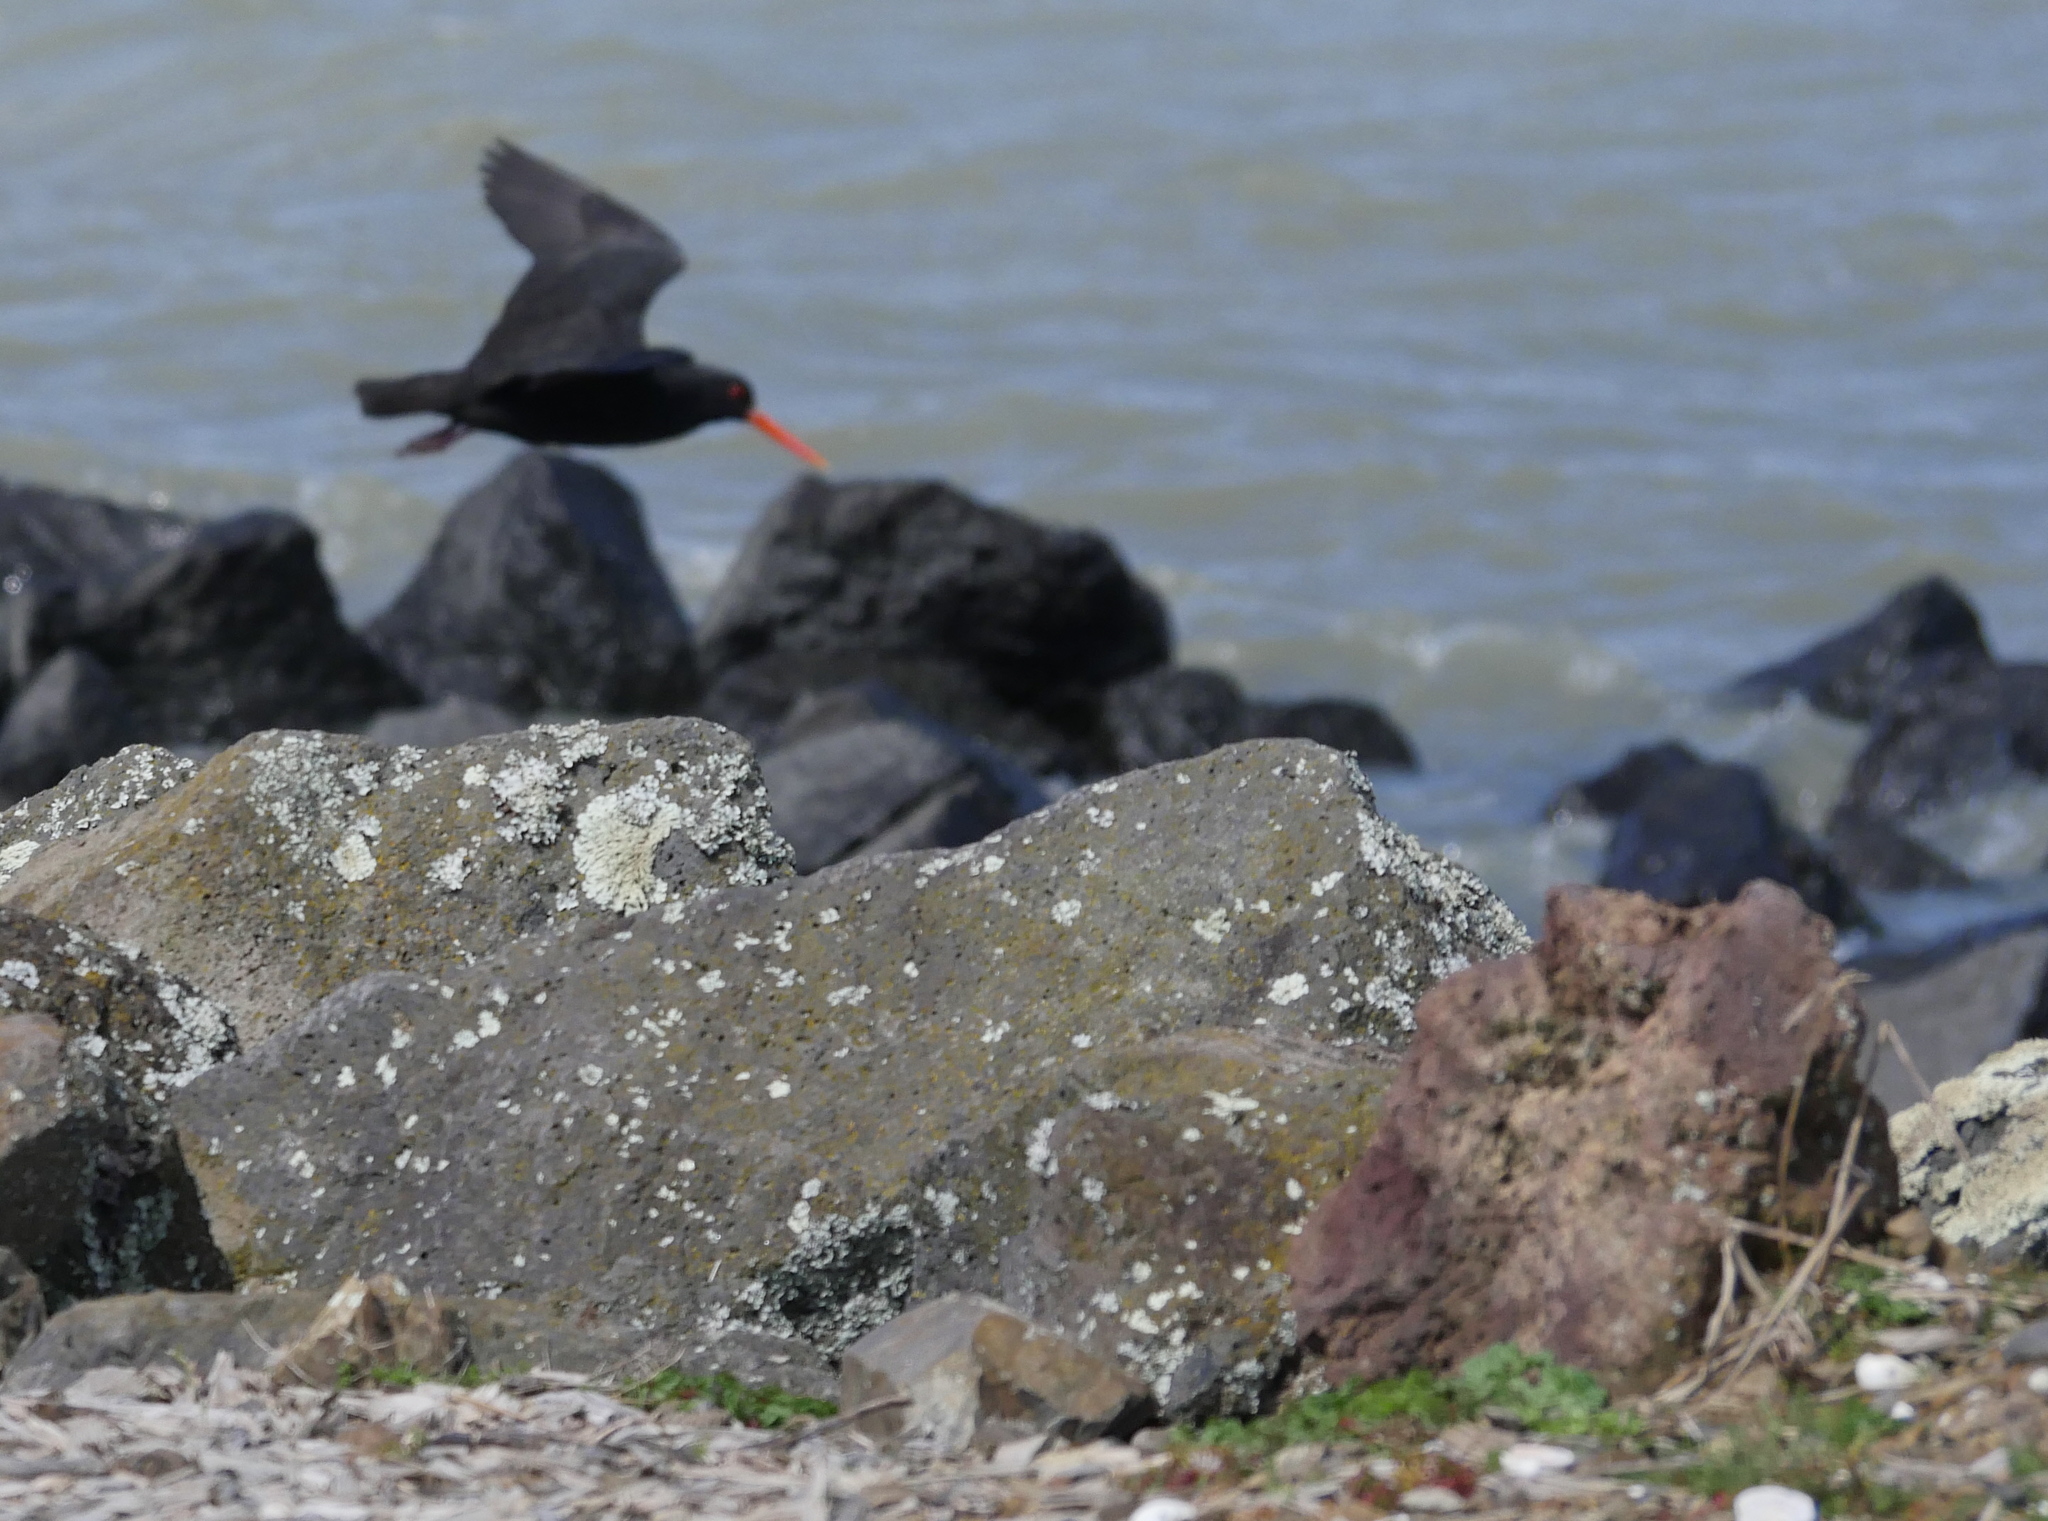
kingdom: Animalia
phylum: Chordata
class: Aves
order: Charadriiformes
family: Haematopodidae
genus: Haematopus
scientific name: Haematopus unicolor
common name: Variable oystercatcher
